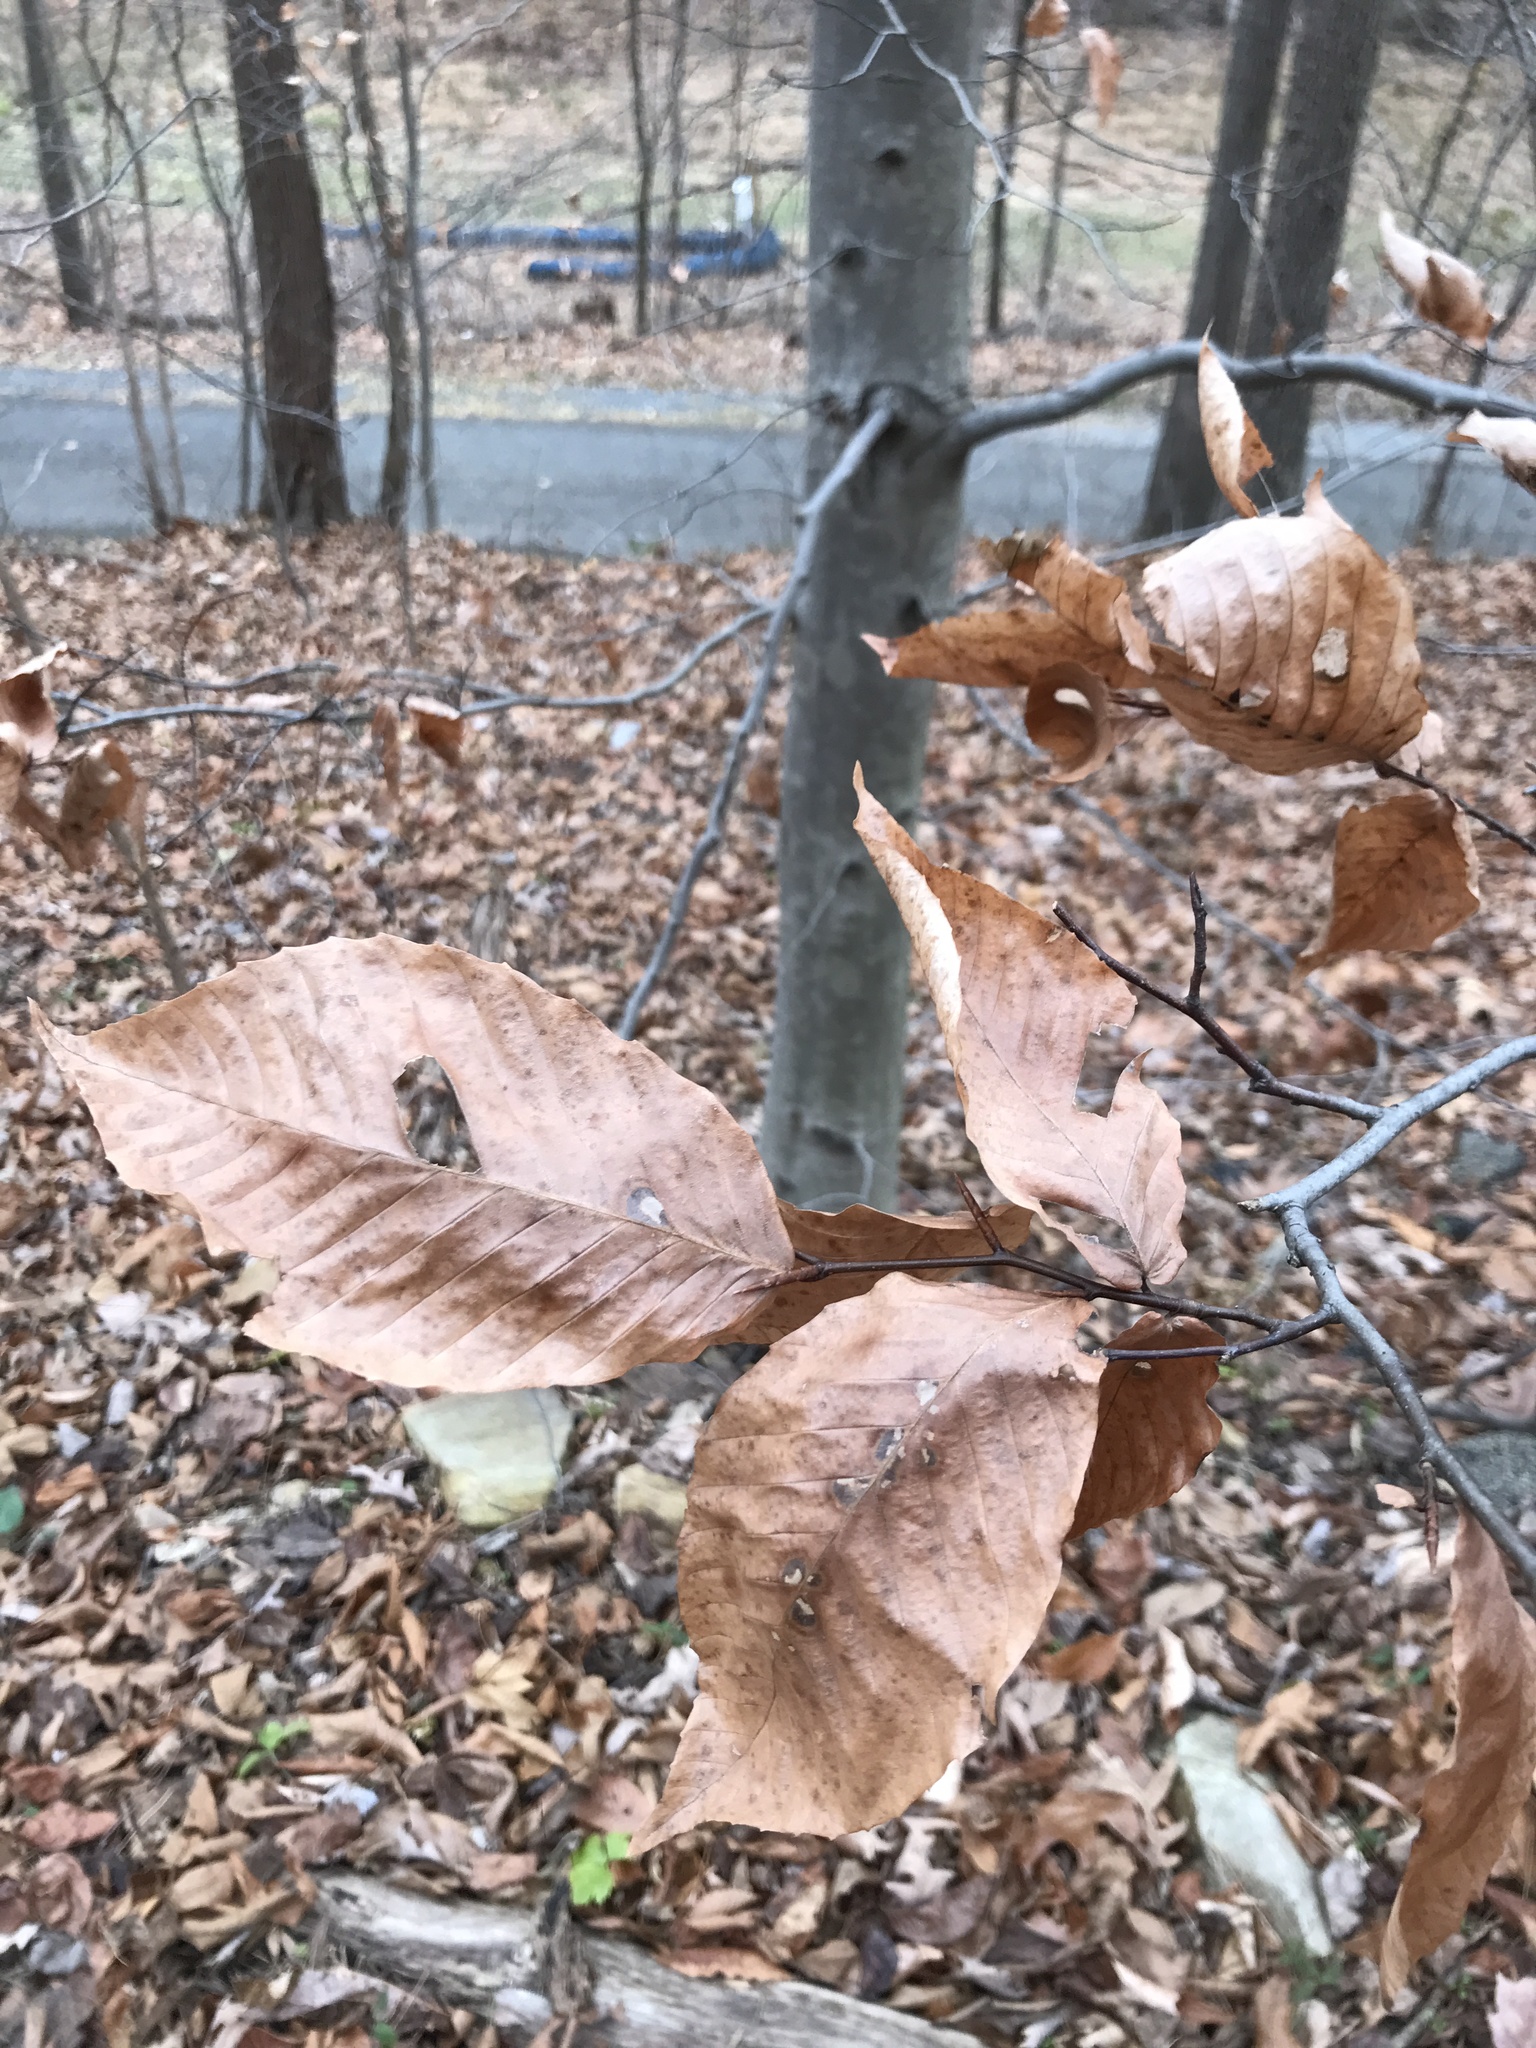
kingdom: Plantae
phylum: Tracheophyta
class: Magnoliopsida
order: Fagales
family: Fagaceae
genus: Fagus
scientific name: Fagus grandifolia
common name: American beech
